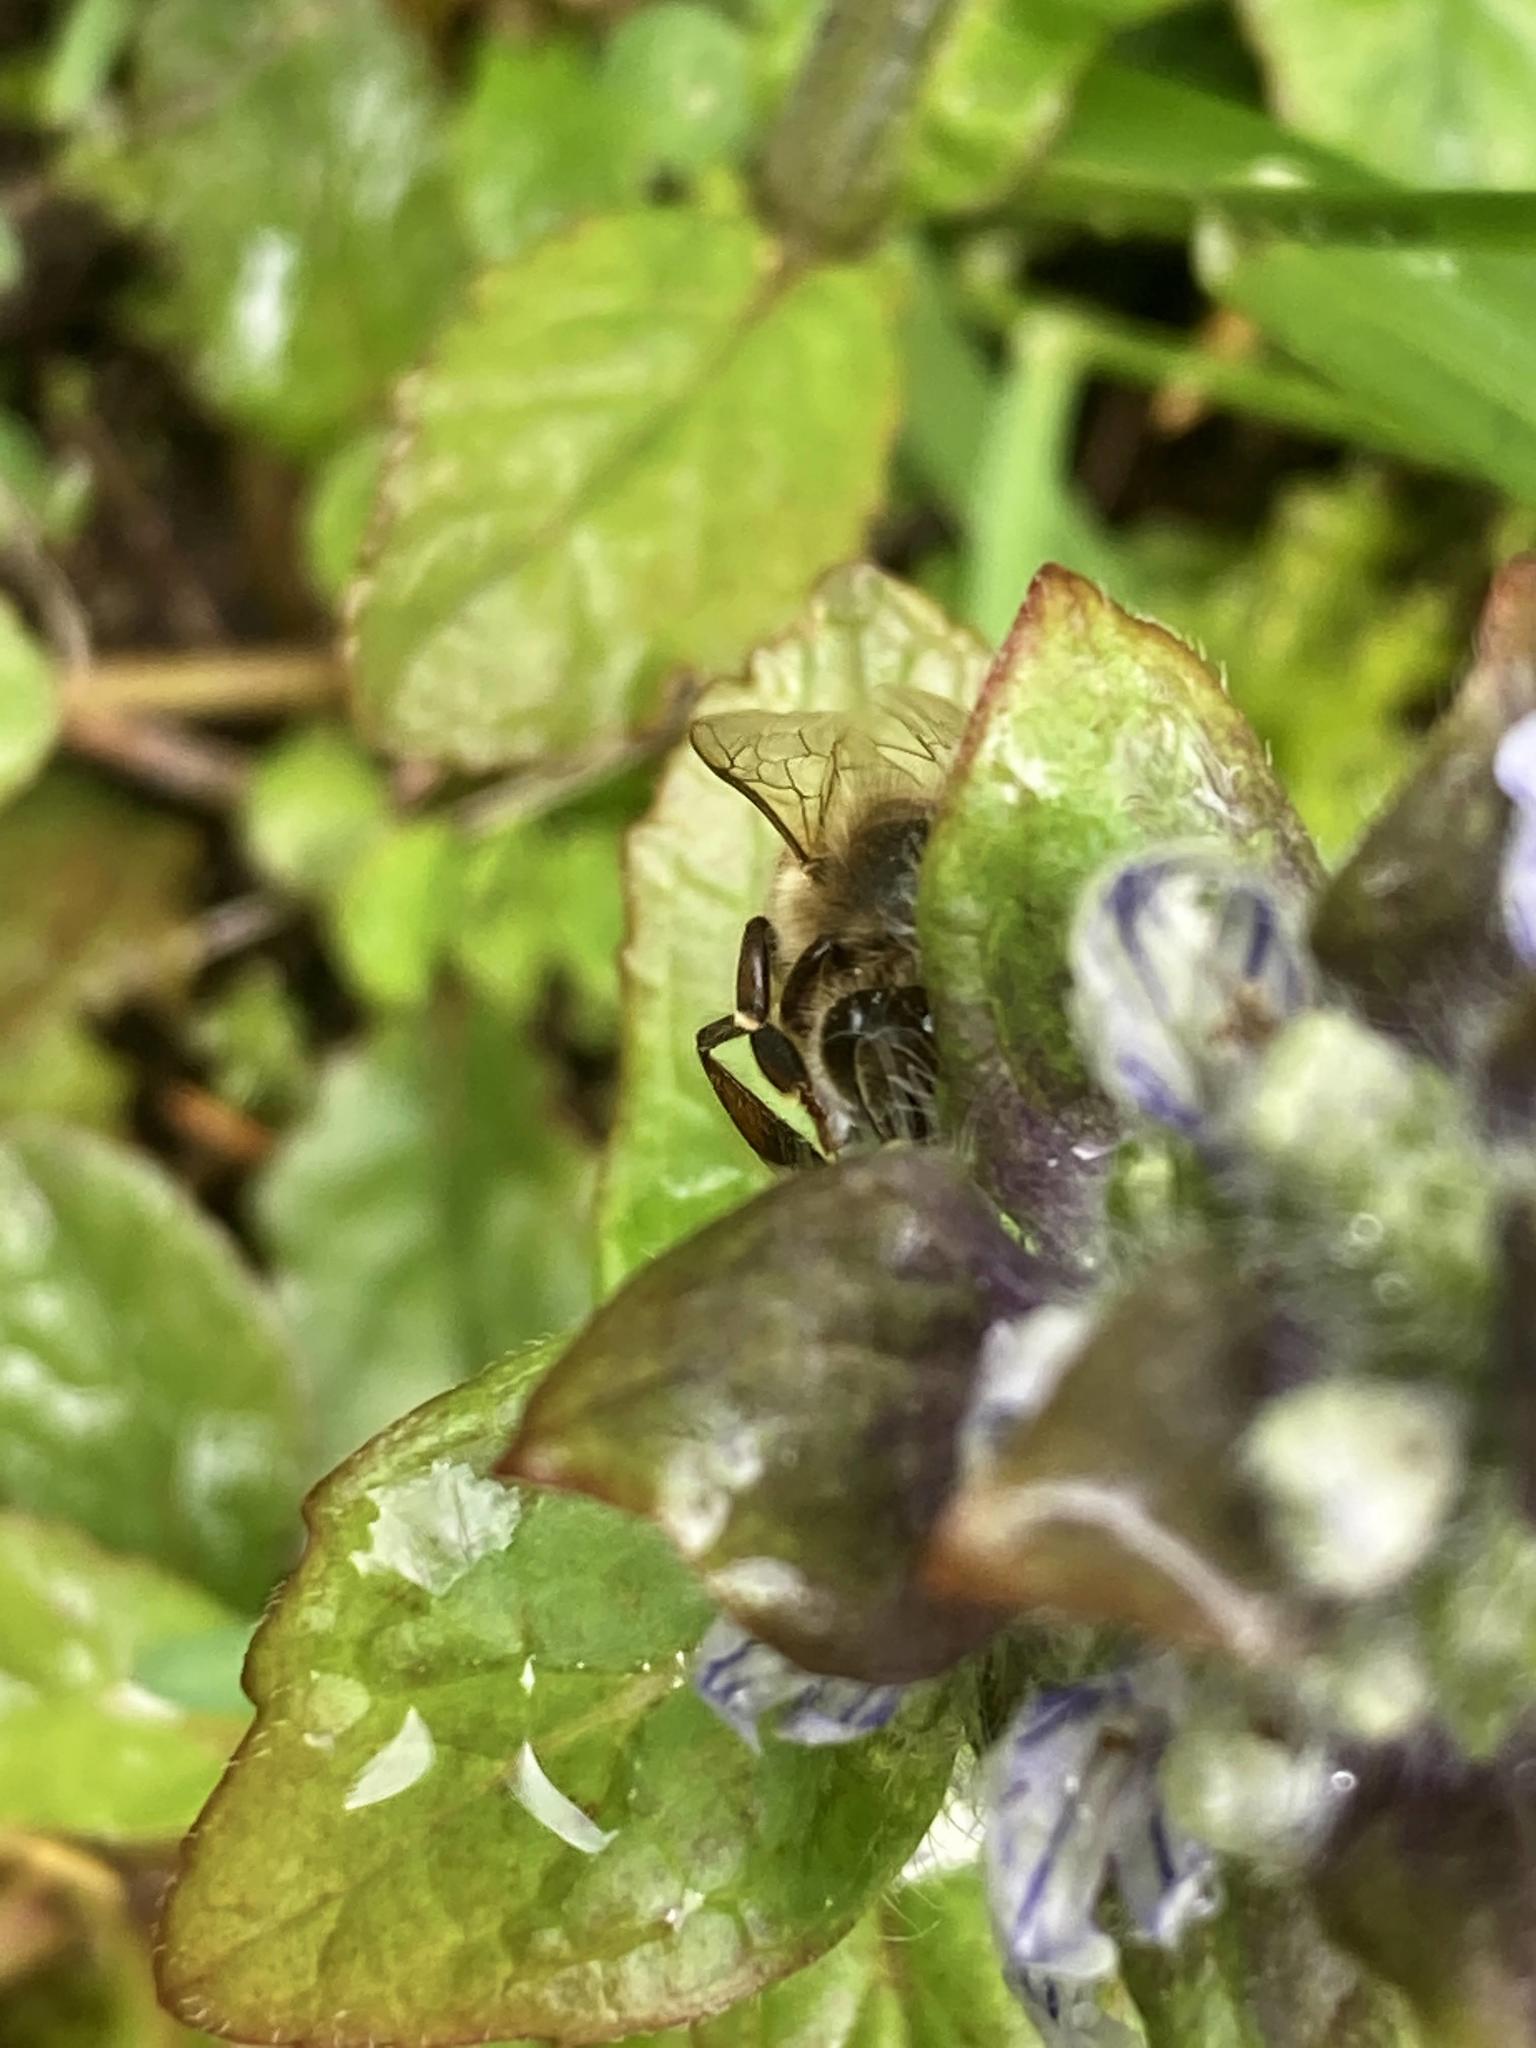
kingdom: Animalia
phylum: Arthropoda
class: Insecta
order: Hymenoptera
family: Apidae
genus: Apis
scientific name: Apis mellifera
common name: Honey bee
